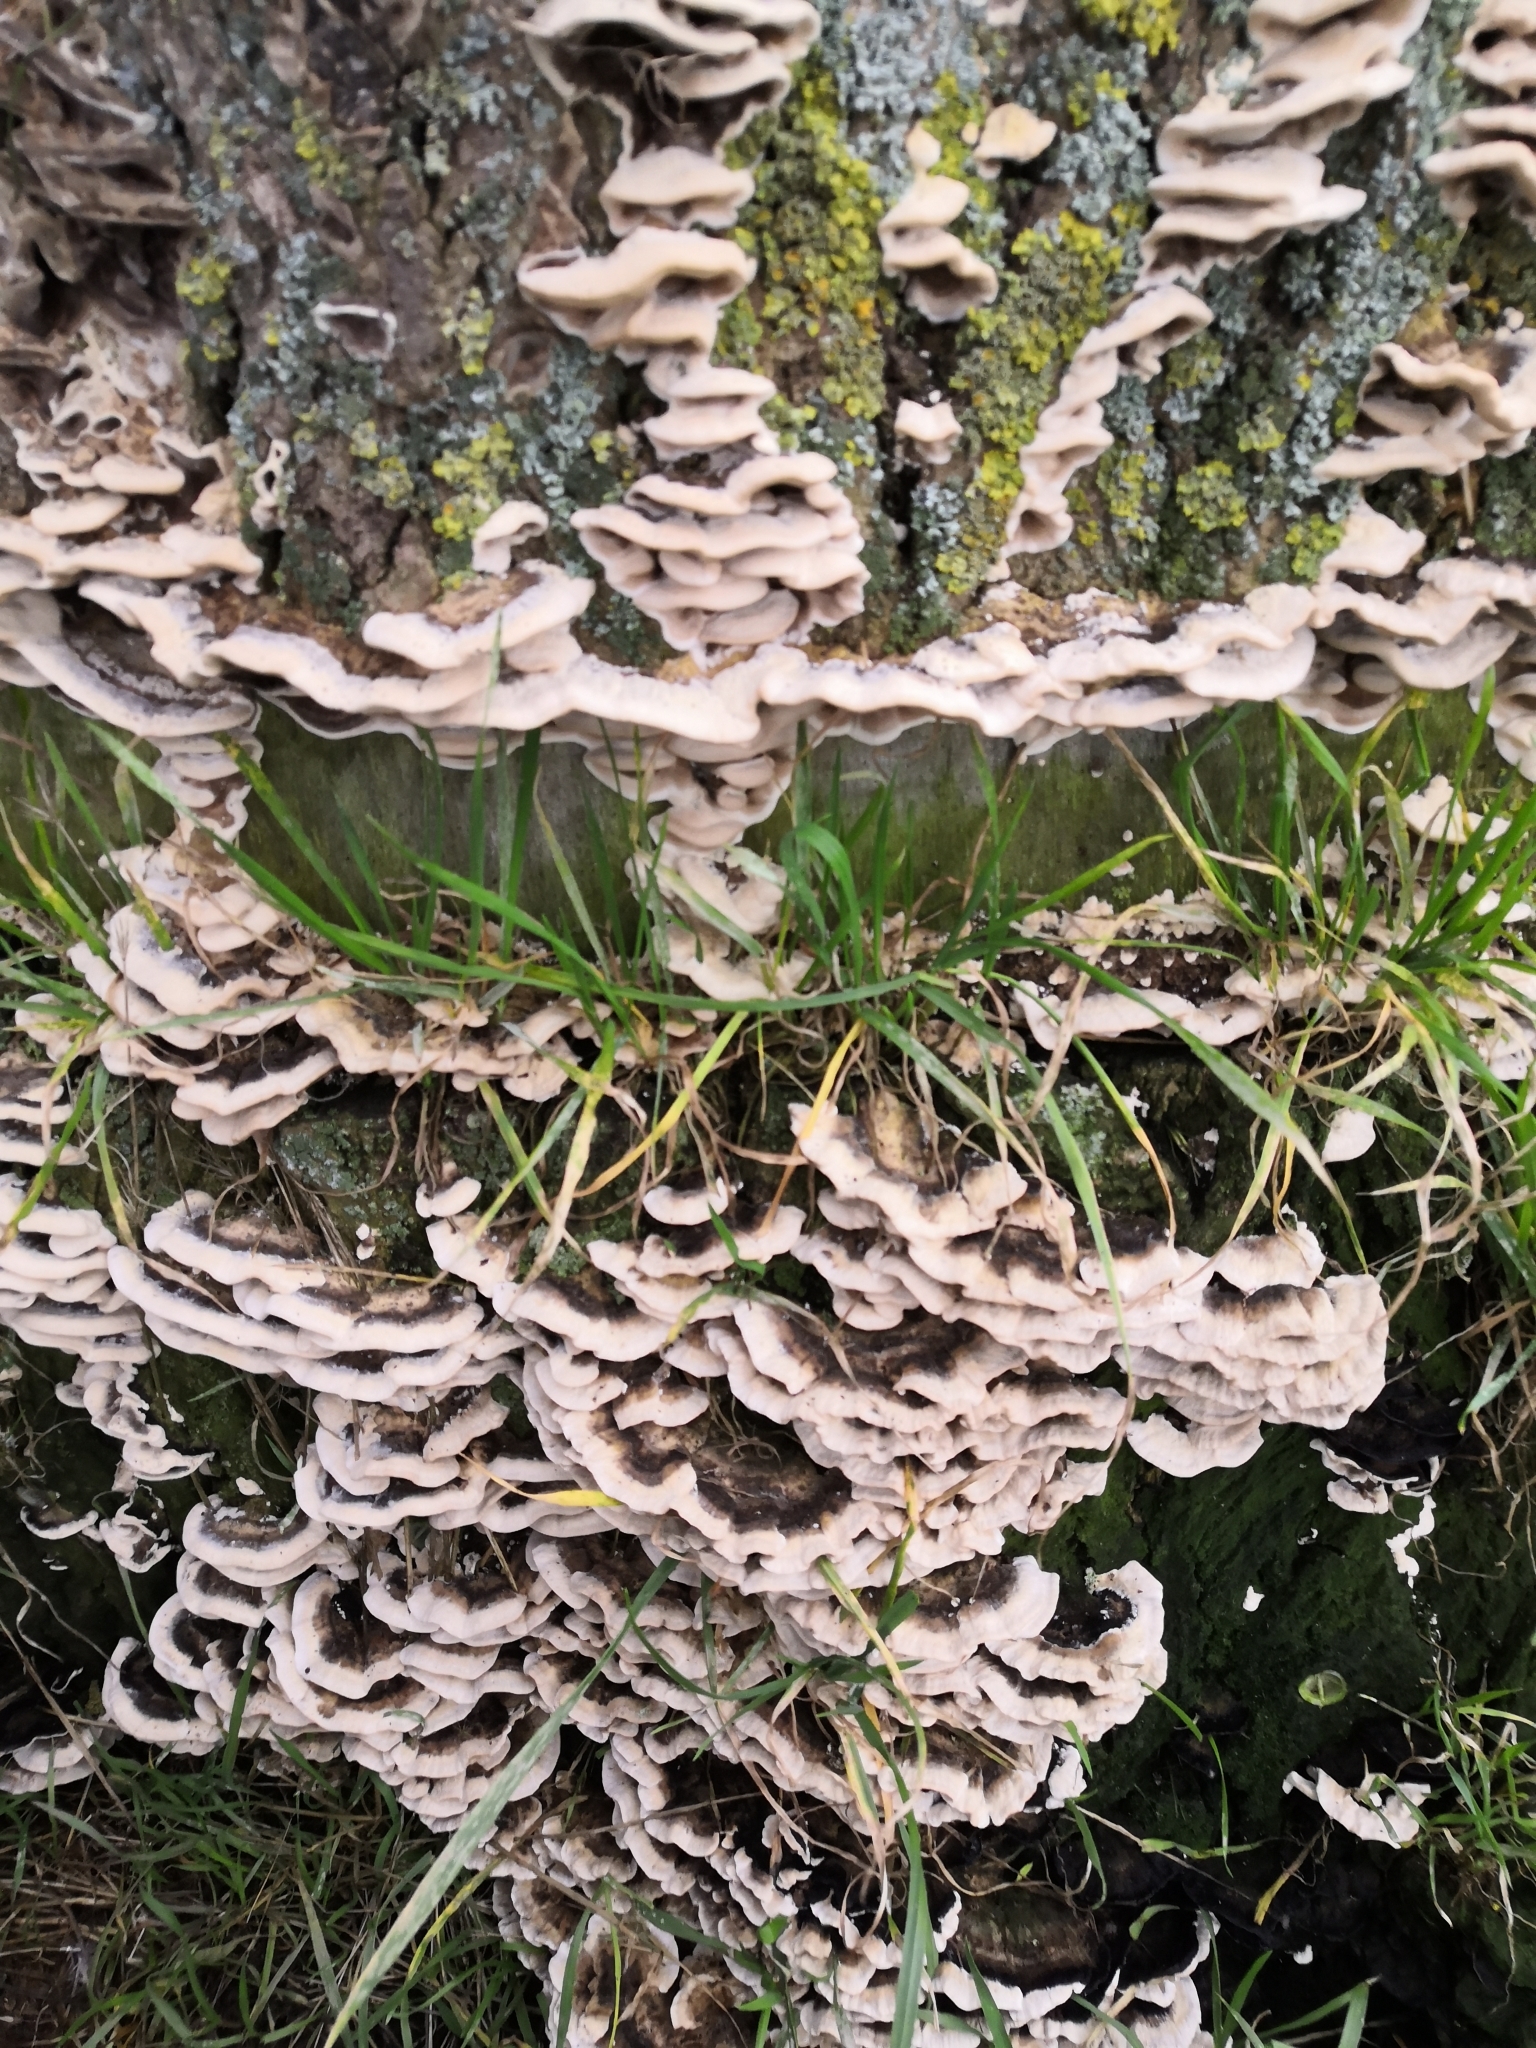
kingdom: Fungi
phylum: Basidiomycota
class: Agaricomycetes
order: Polyporales
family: Phanerochaetaceae
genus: Bjerkandera
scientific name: Bjerkandera adusta
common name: Smoky bracket
